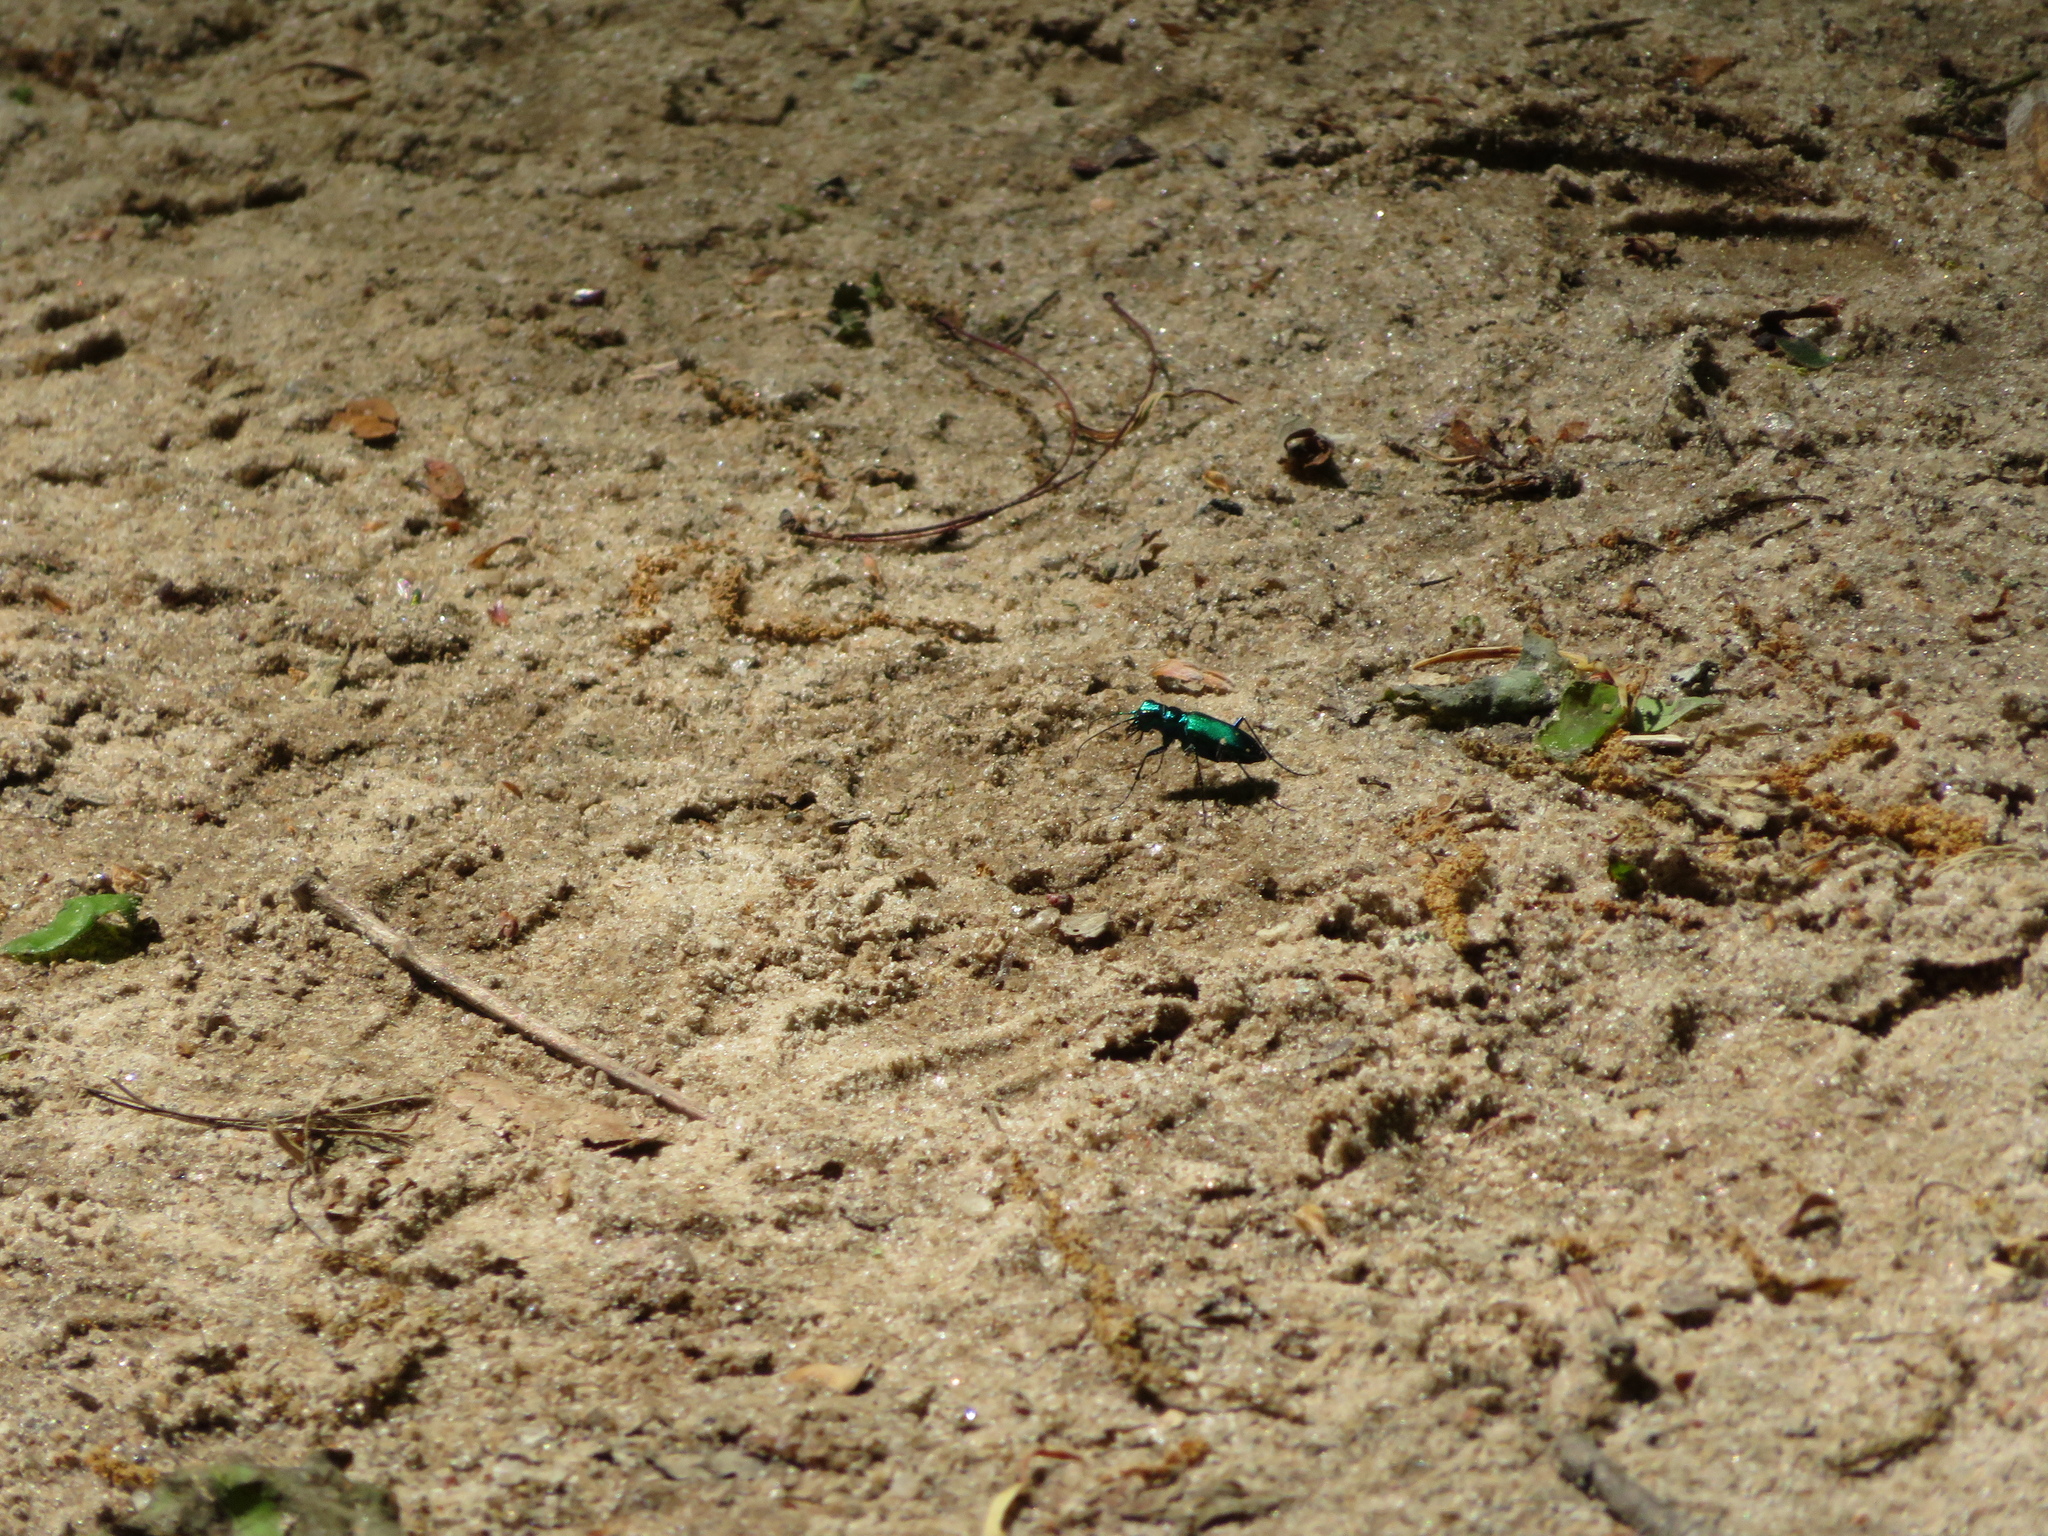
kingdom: Animalia
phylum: Arthropoda
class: Insecta
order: Coleoptera
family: Carabidae
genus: Cicindela
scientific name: Cicindela sexguttata
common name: Six-spotted tiger beetle
